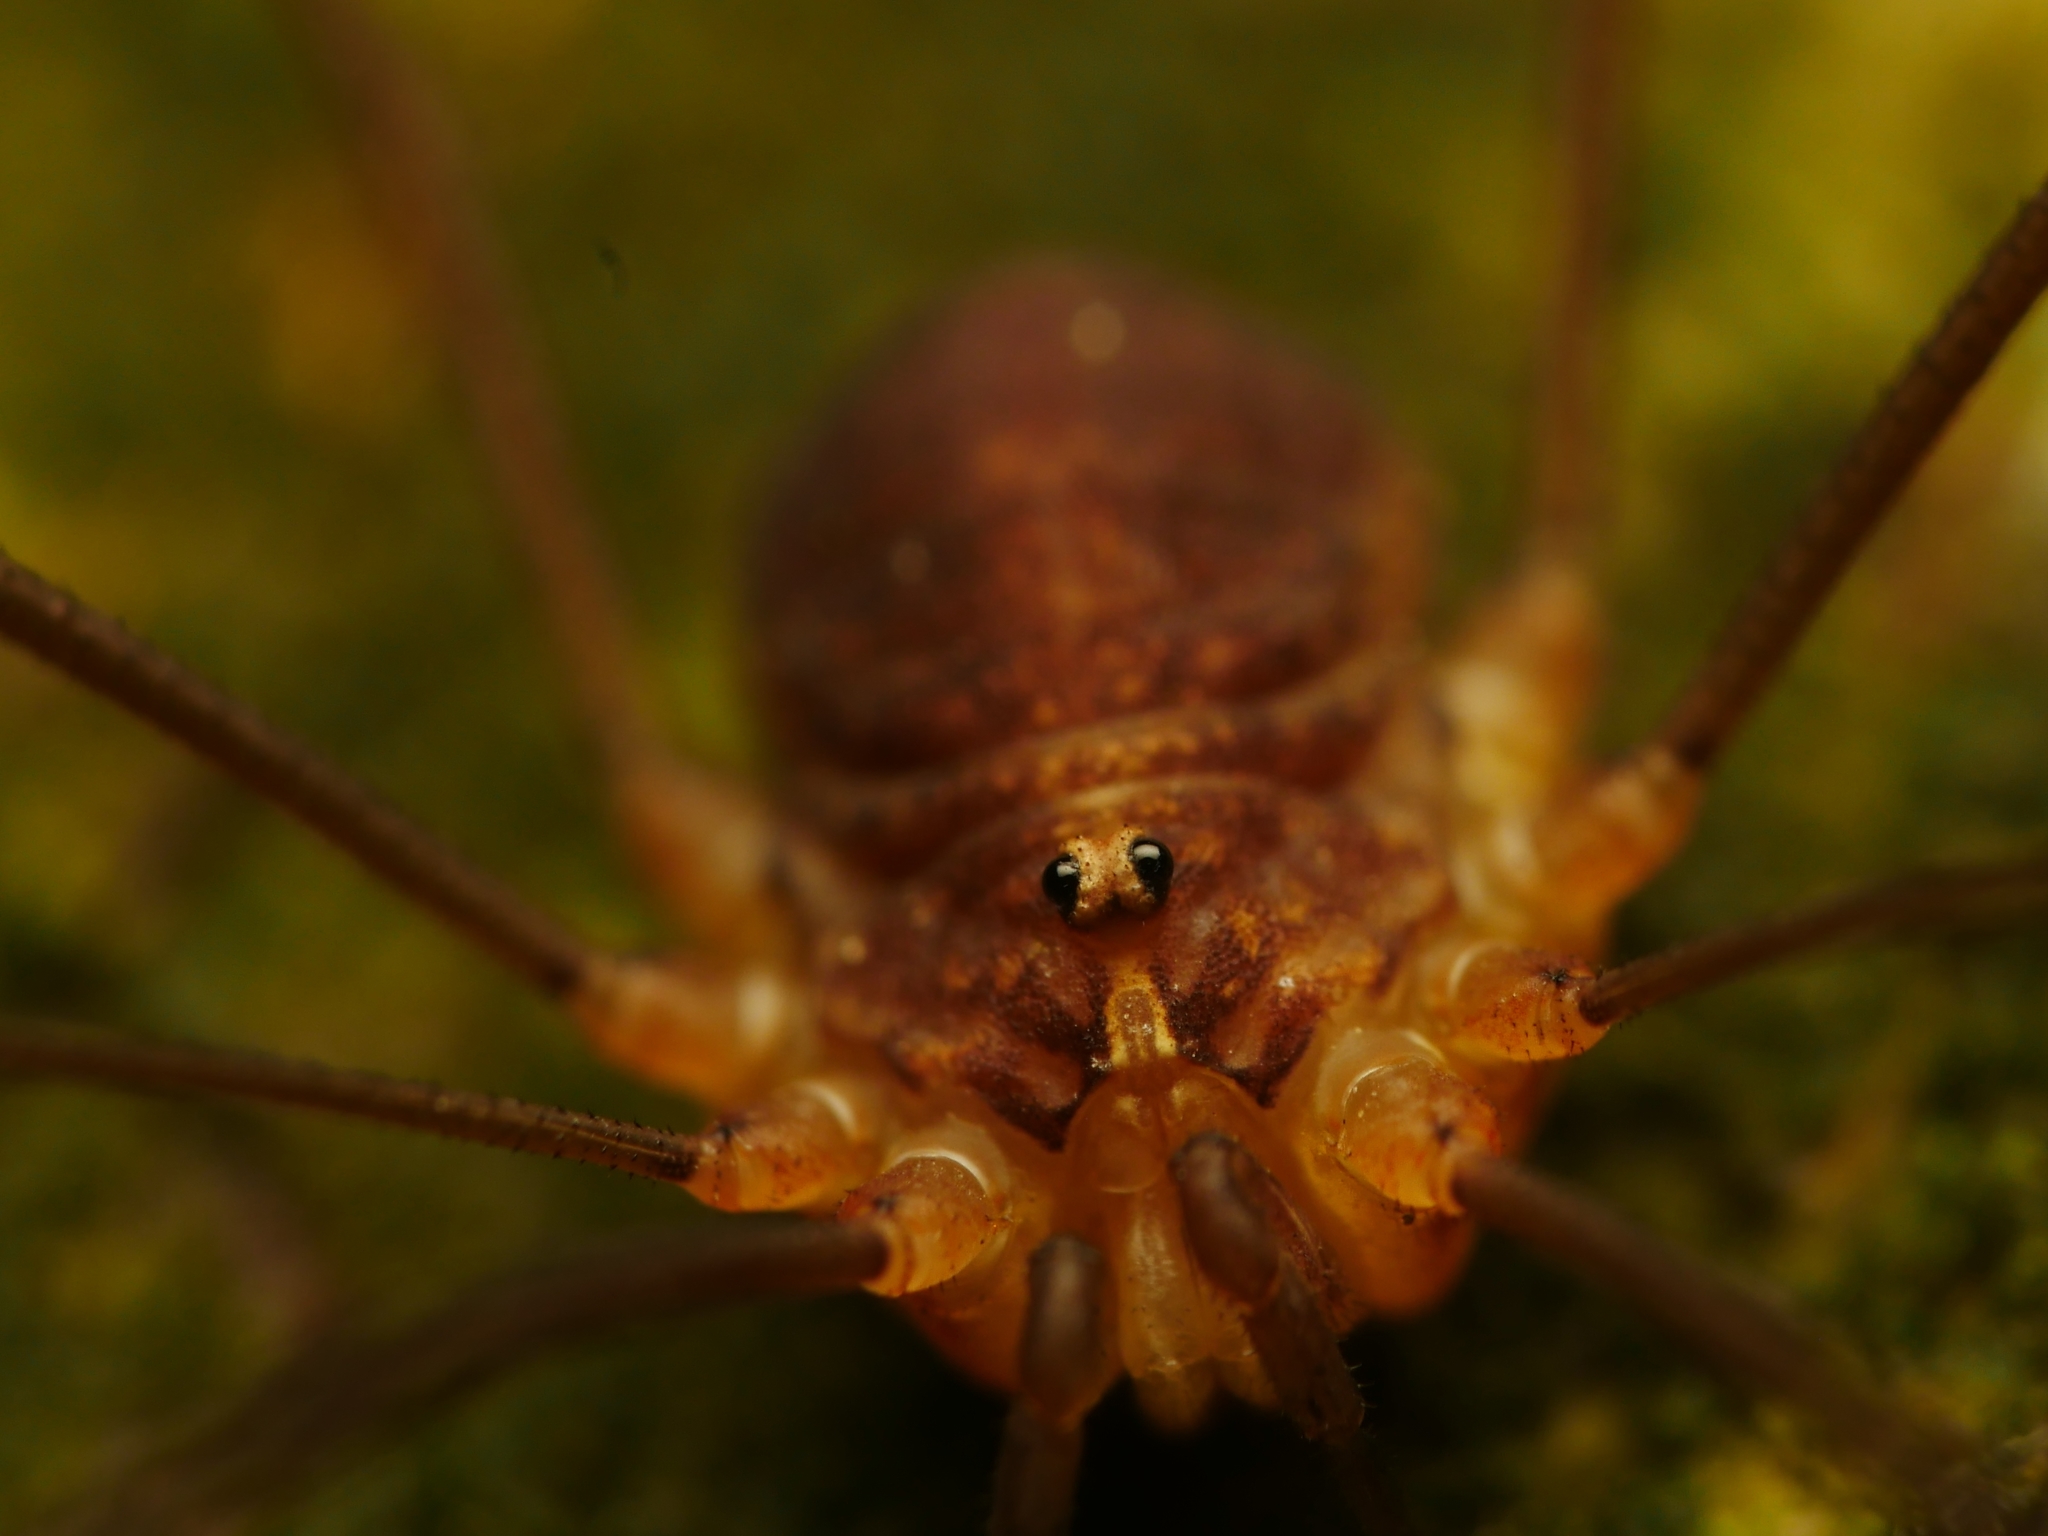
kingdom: Animalia
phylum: Arthropoda
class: Arachnida
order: Opiliones
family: Phalangiidae
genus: Opilio
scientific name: Opilio canestrinii
